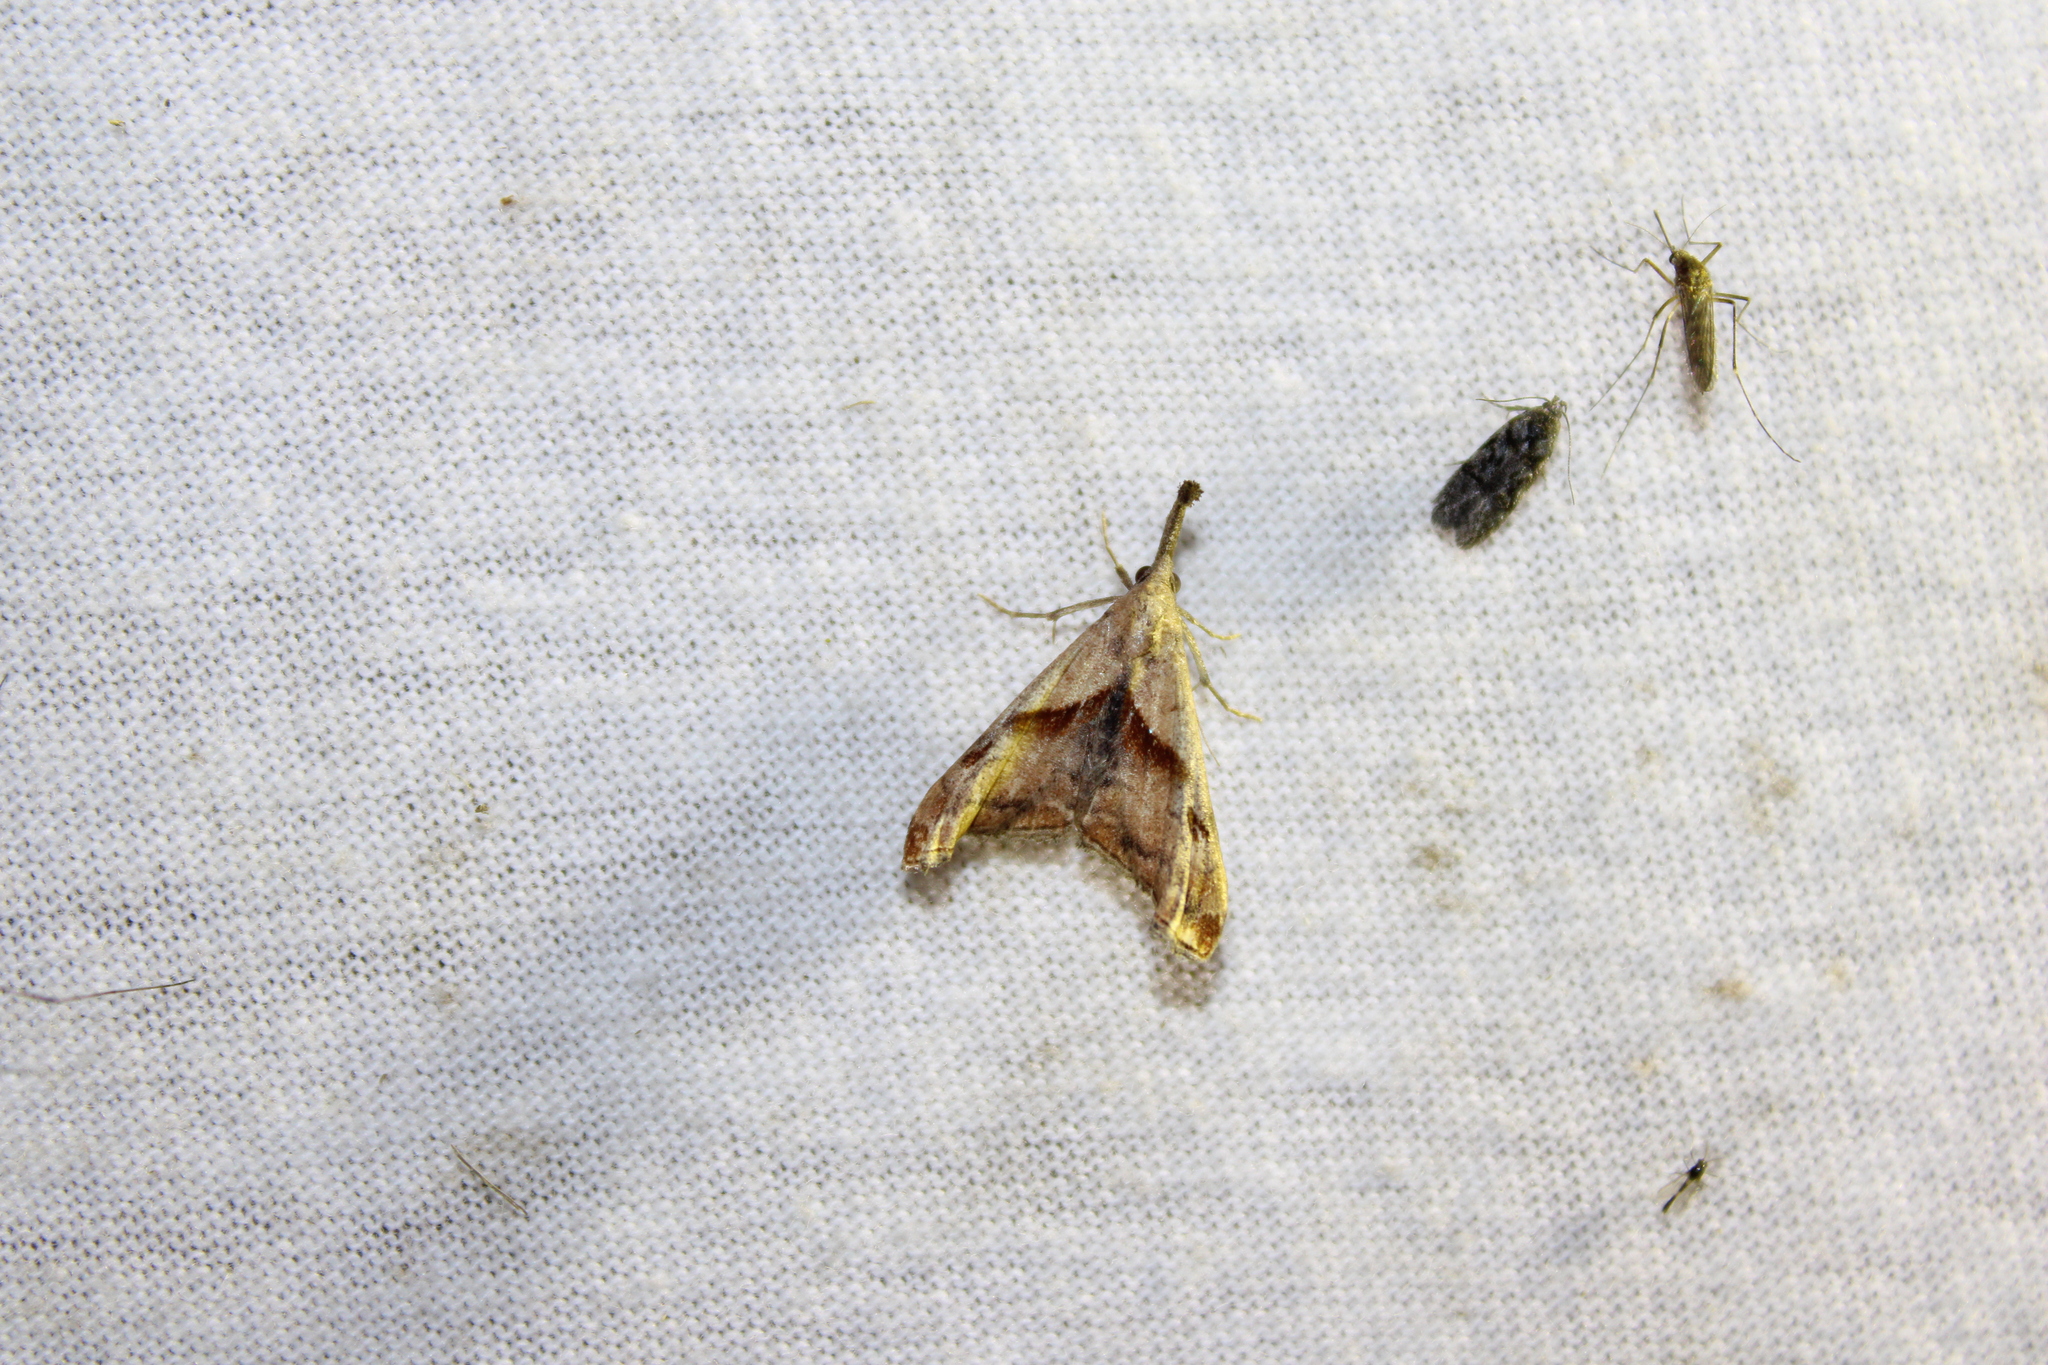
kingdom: Animalia
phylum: Arthropoda
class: Insecta
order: Lepidoptera
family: Erebidae
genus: Palthis
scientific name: Palthis angulalis
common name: Dark-spotted palthis moth
